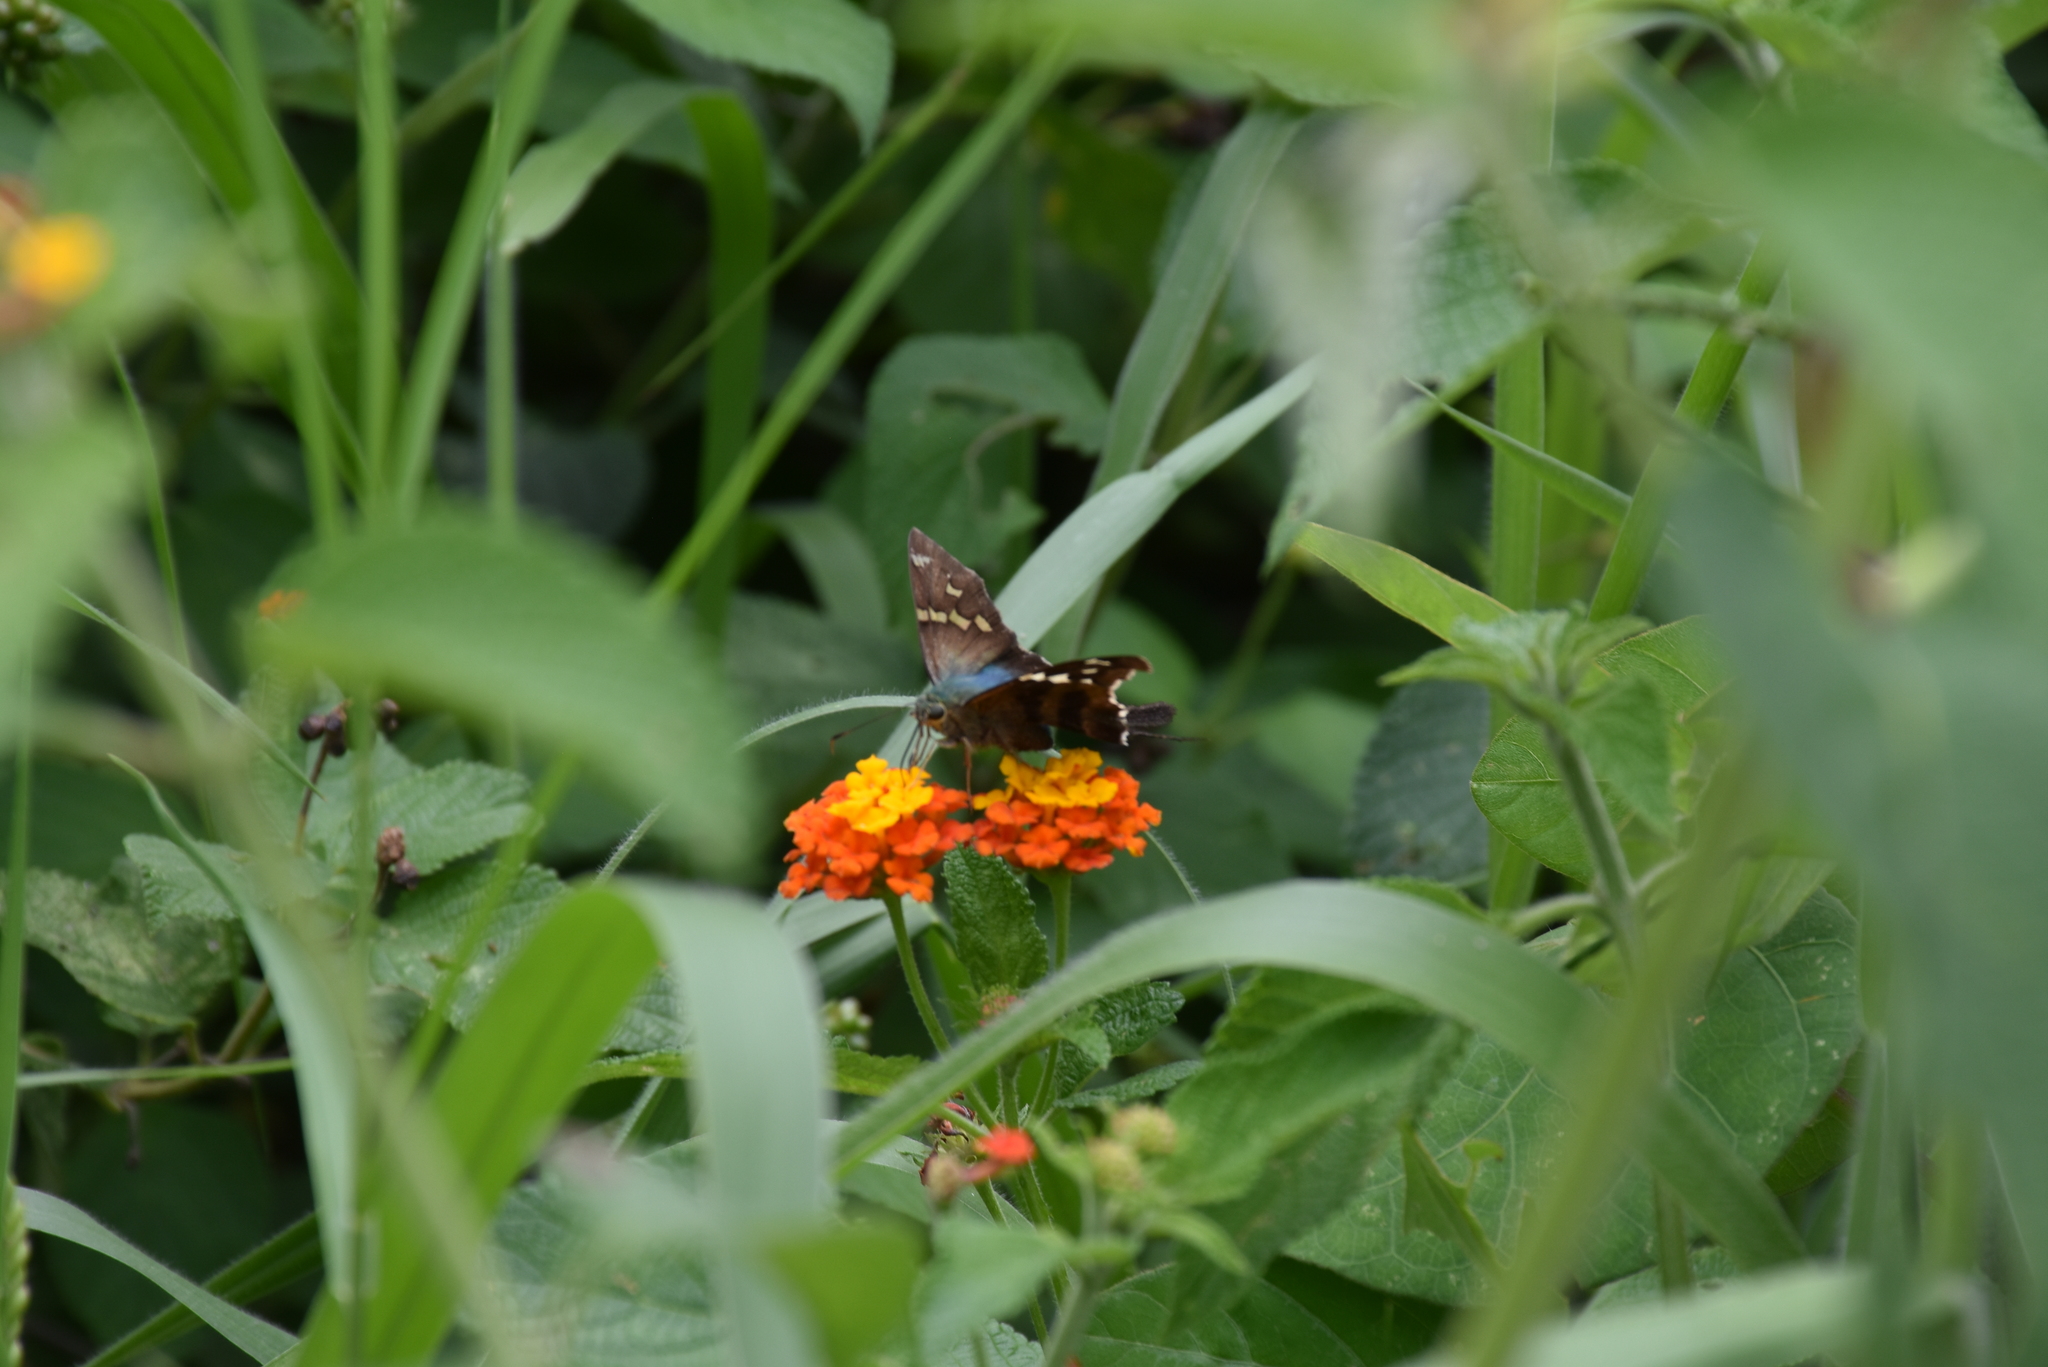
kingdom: Animalia
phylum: Arthropoda
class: Insecta
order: Lepidoptera
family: Hesperiidae
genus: Urbanus
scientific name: Urbanus esmeraldus
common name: Esmeralda longtail
